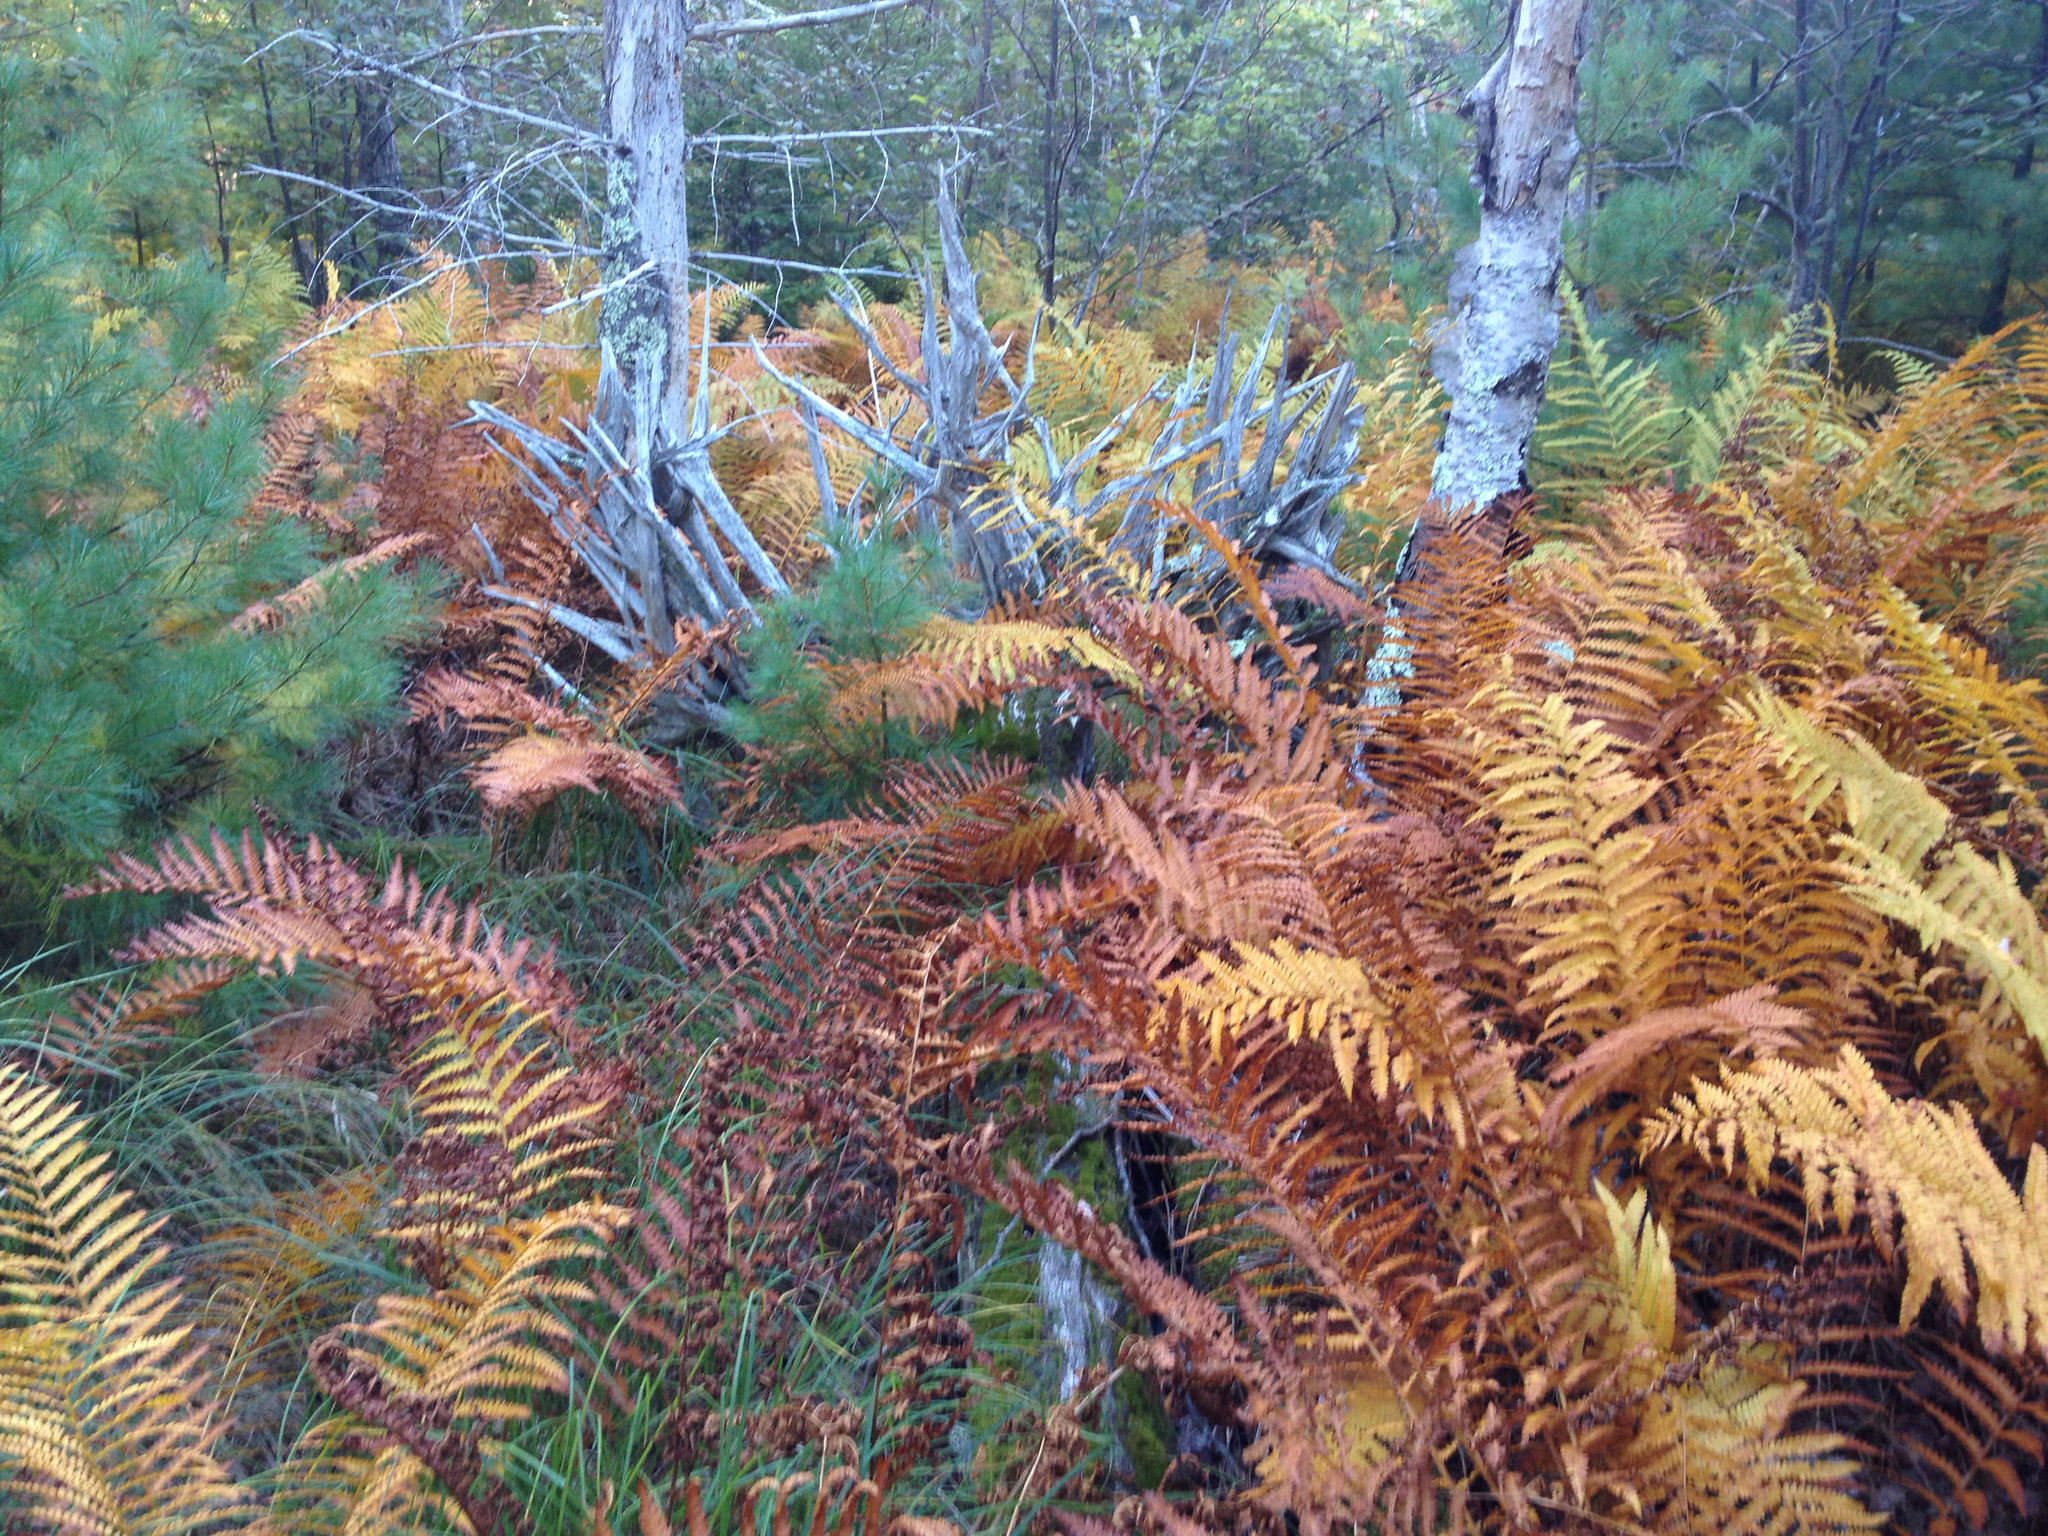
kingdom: Plantae
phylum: Tracheophyta
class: Polypodiopsida
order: Osmundales
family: Osmundaceae
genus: Osmundastrum
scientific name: Osmundastrum cinnamomeum
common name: Cinnamon fern
